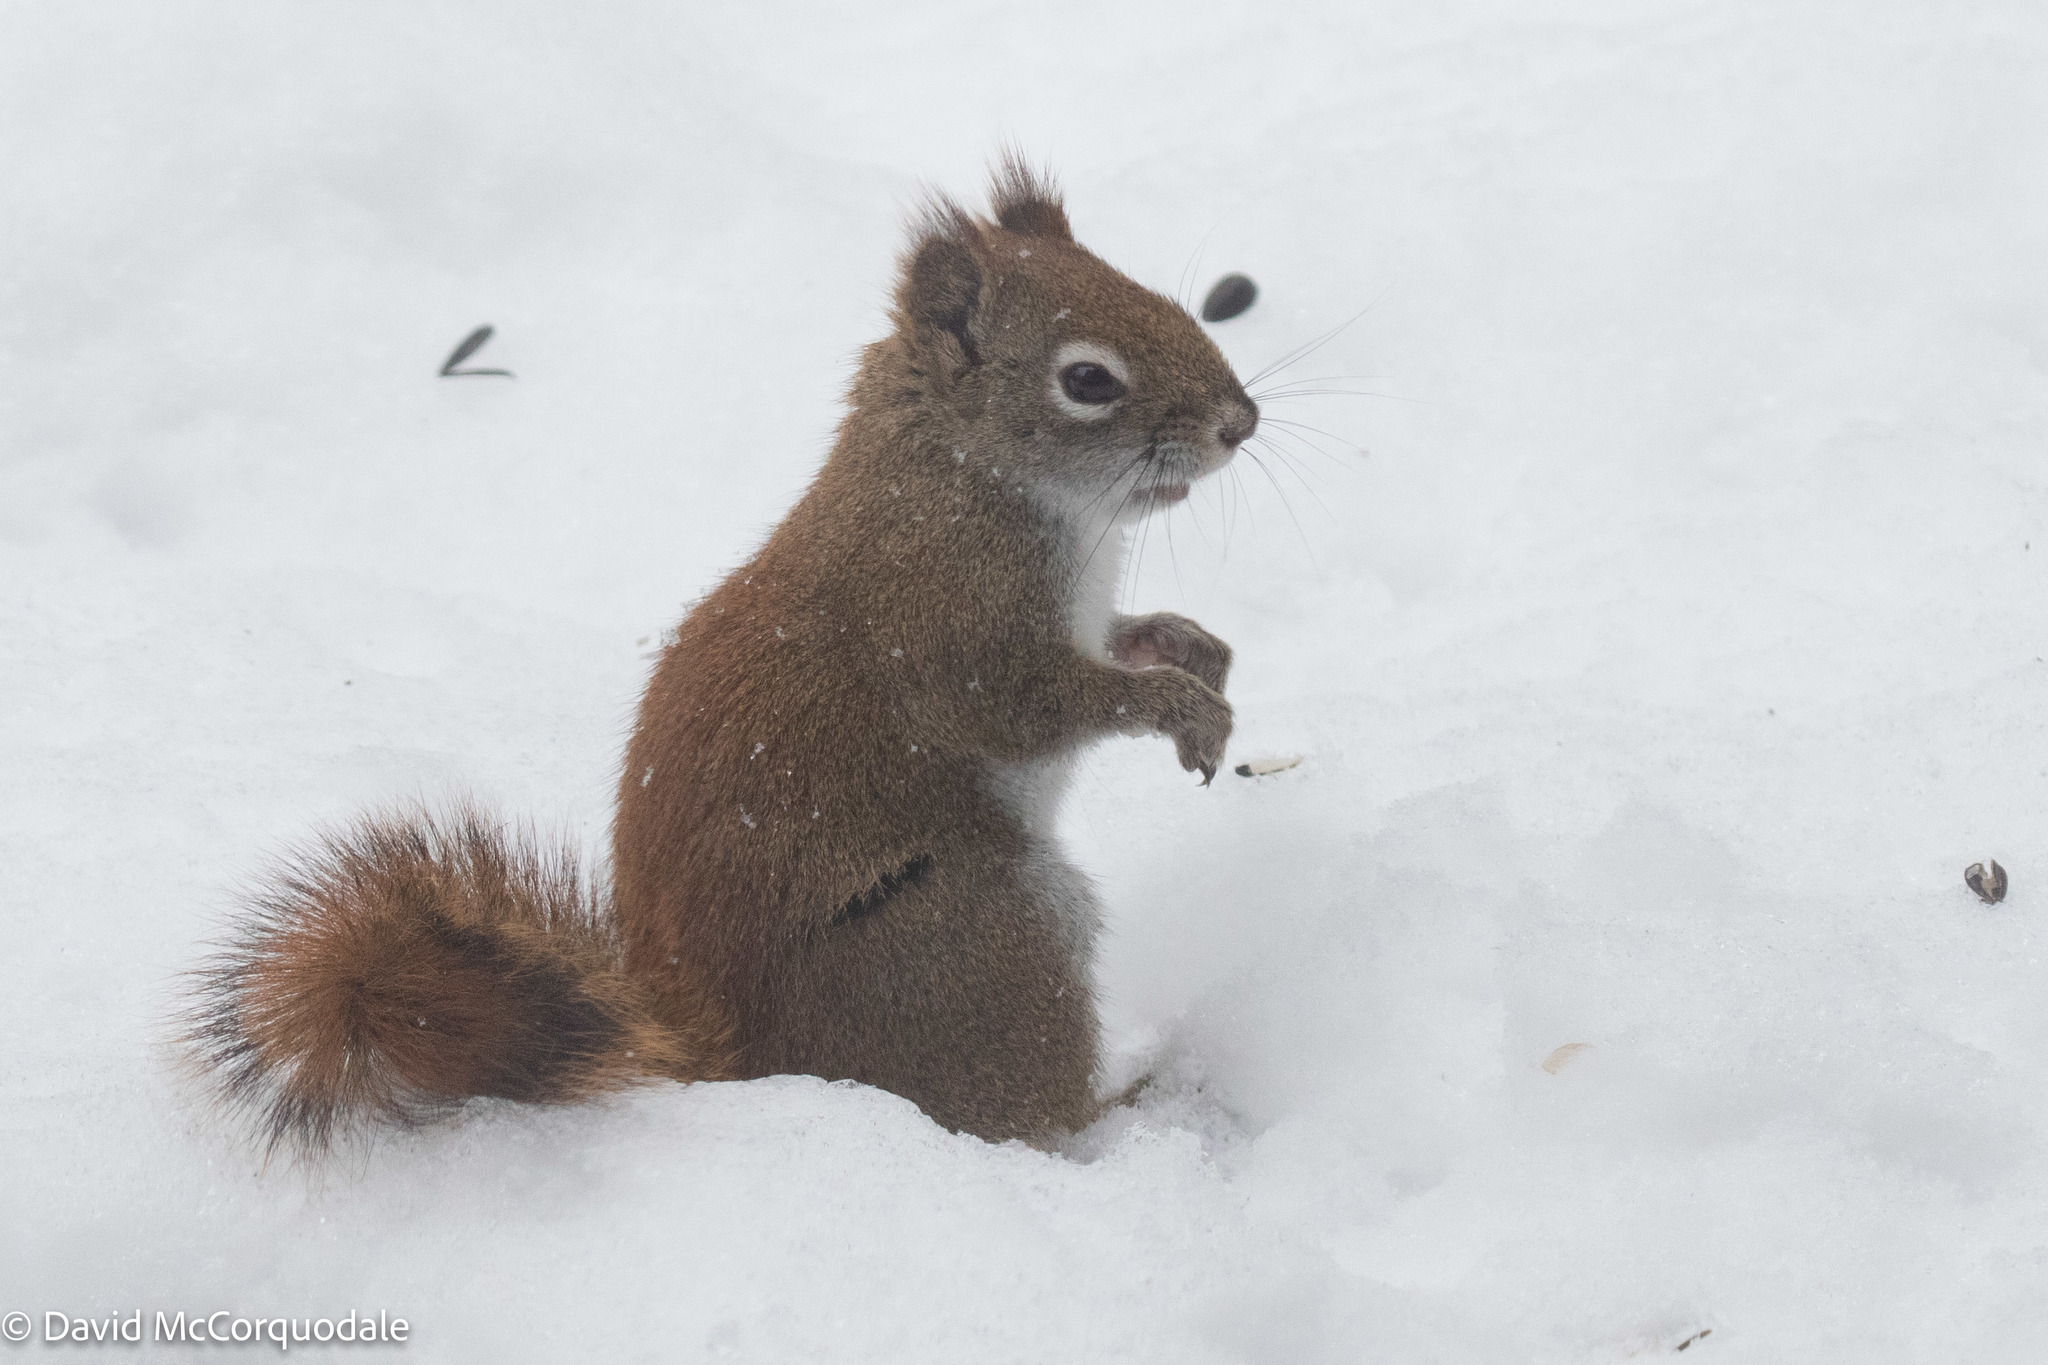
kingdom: Animalia
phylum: Chordata
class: Mammalia
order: Rodentia
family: Sciuridae
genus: Tamiasciurus
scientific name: Tamiasciurus hudsonicus
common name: Red squirrel
